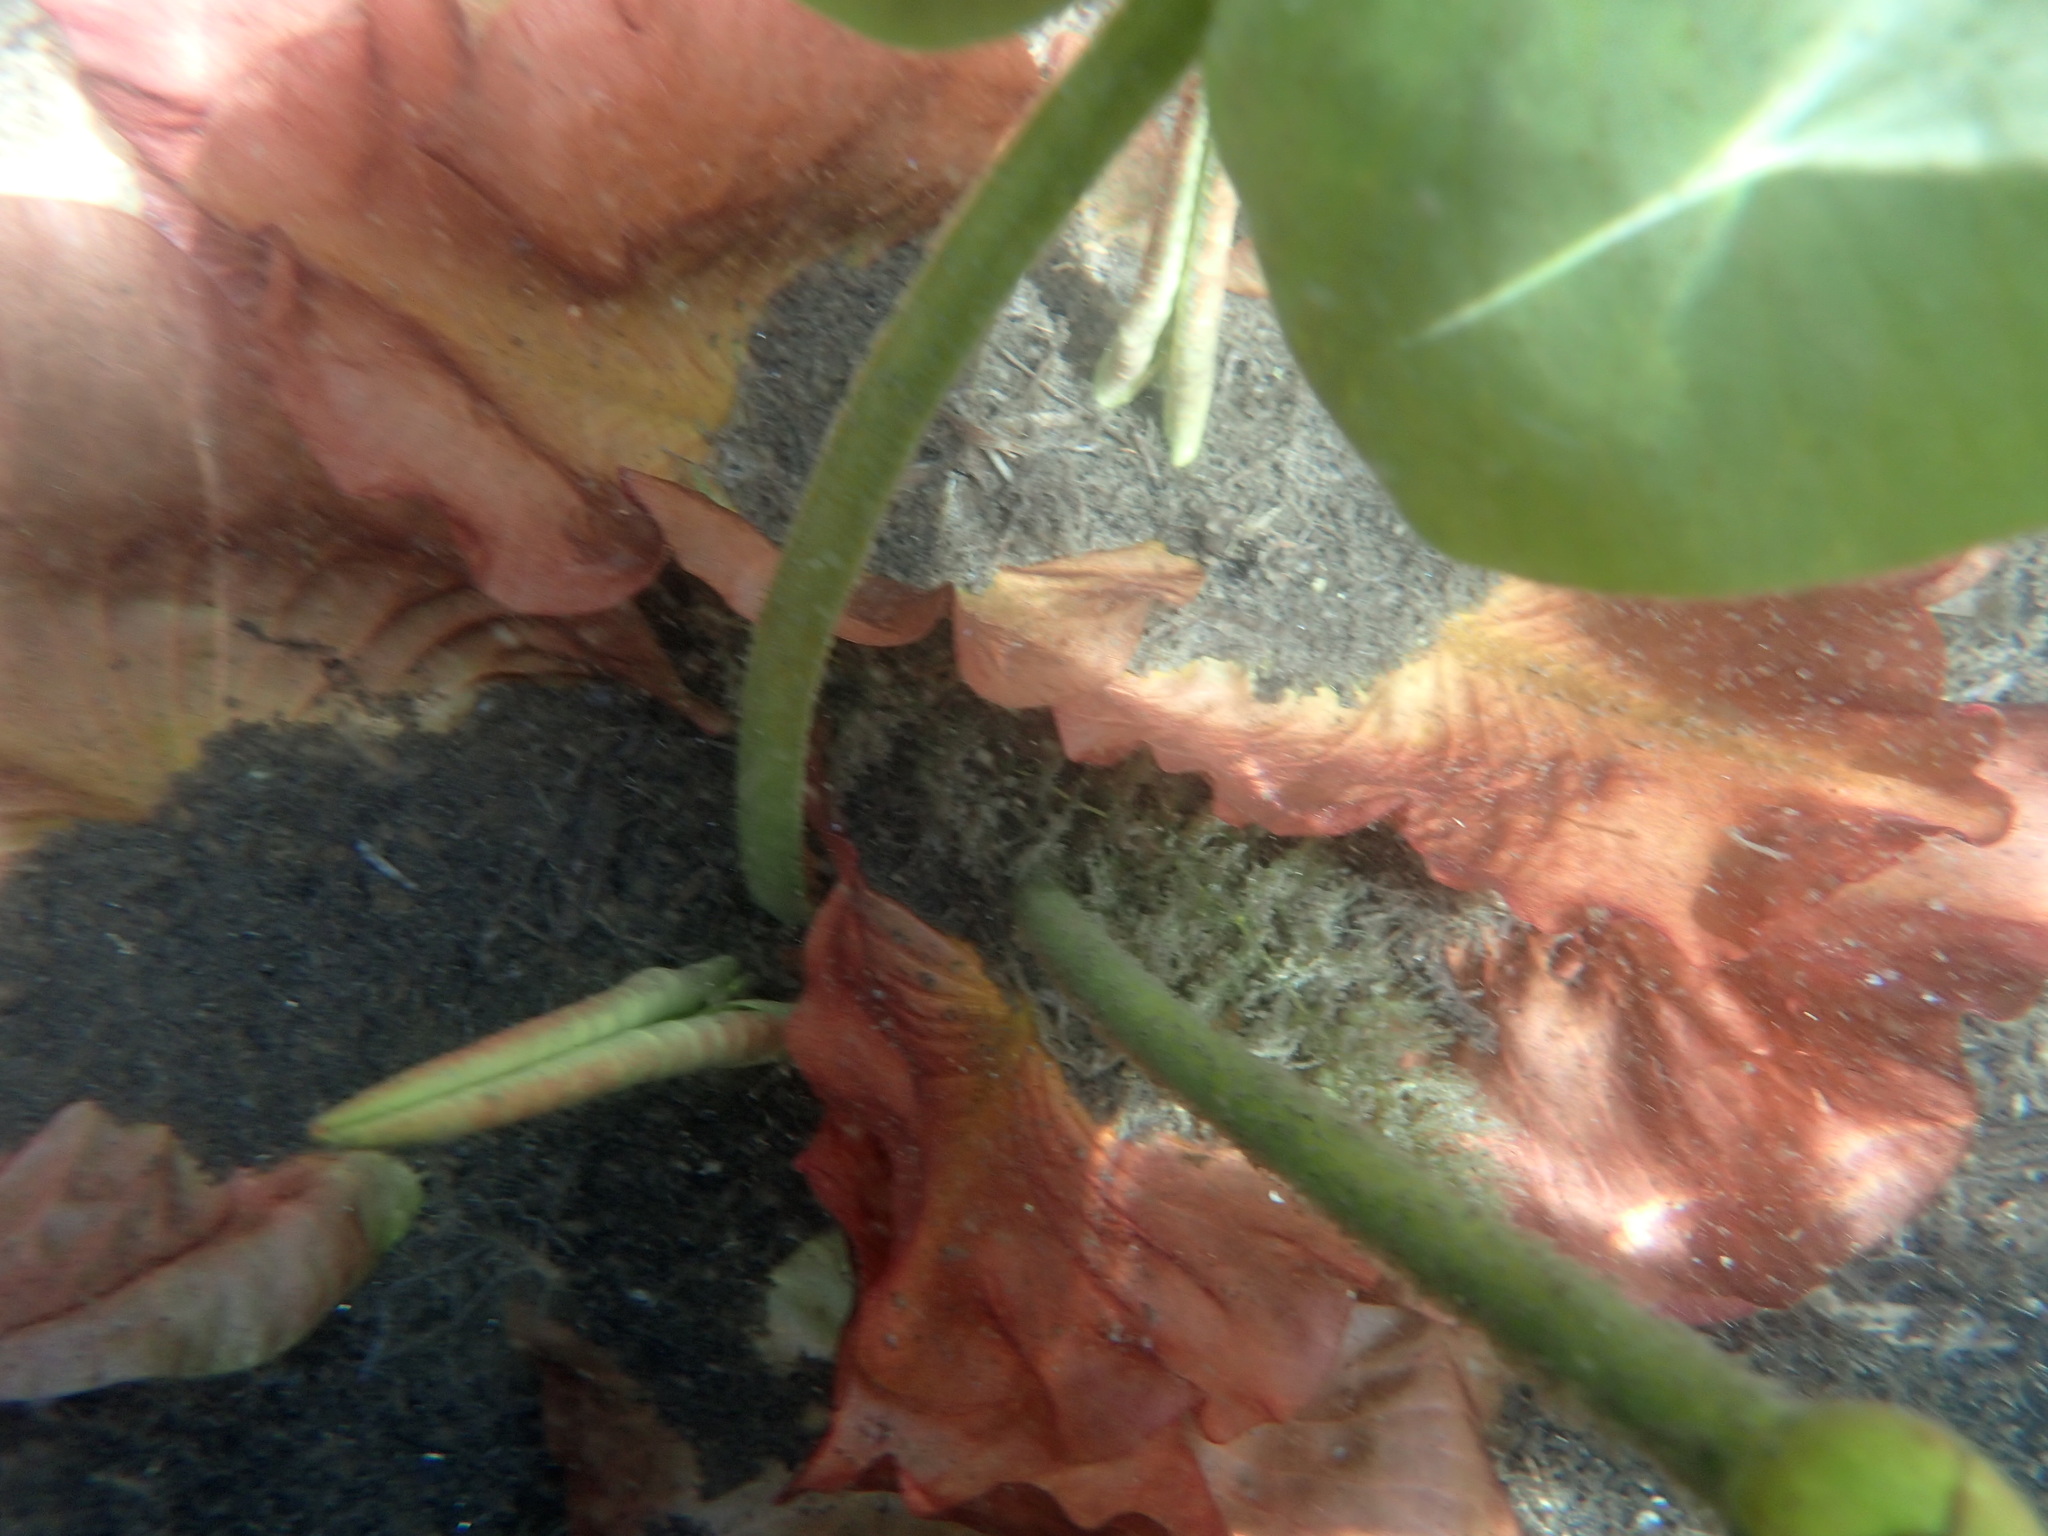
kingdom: Plantae
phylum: Tracheophyta
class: Magnoliopsida
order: Nymphaeales
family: Nymphaeaceae
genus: Nuphar
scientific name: Nuphar variegata
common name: Beaver-root
